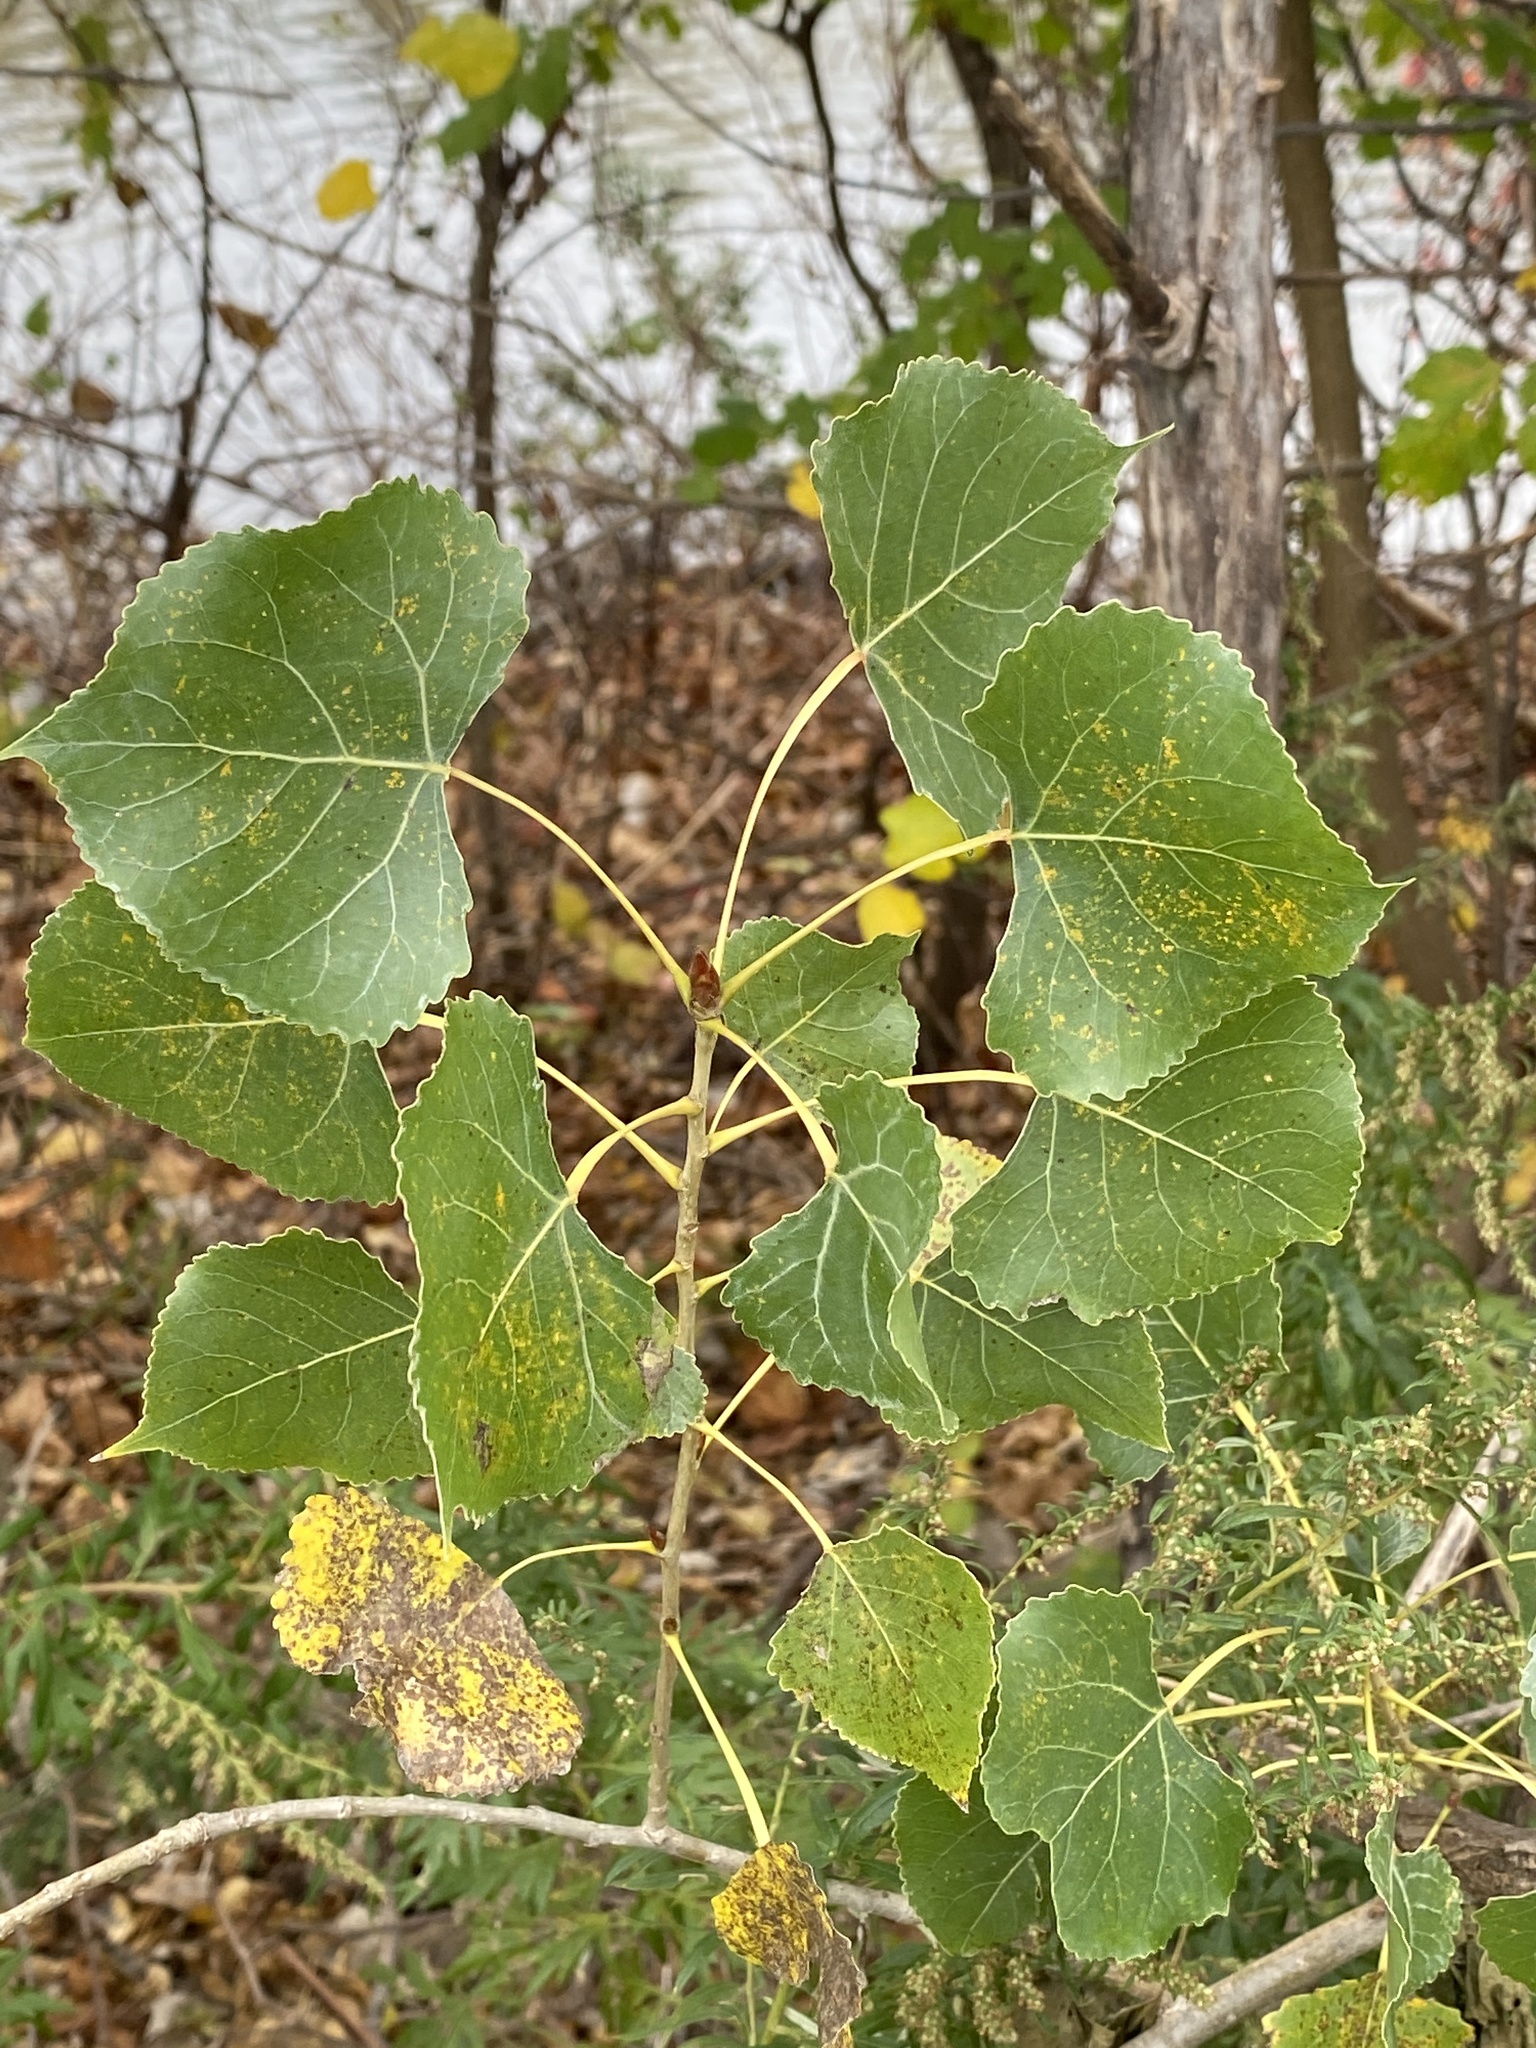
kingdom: Plantae
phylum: Tracheophyta
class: Magnoliopsida
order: Malpighiales
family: Salicaceae
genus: Populus
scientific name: Populus deltoides
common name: Eastern cottonwood
